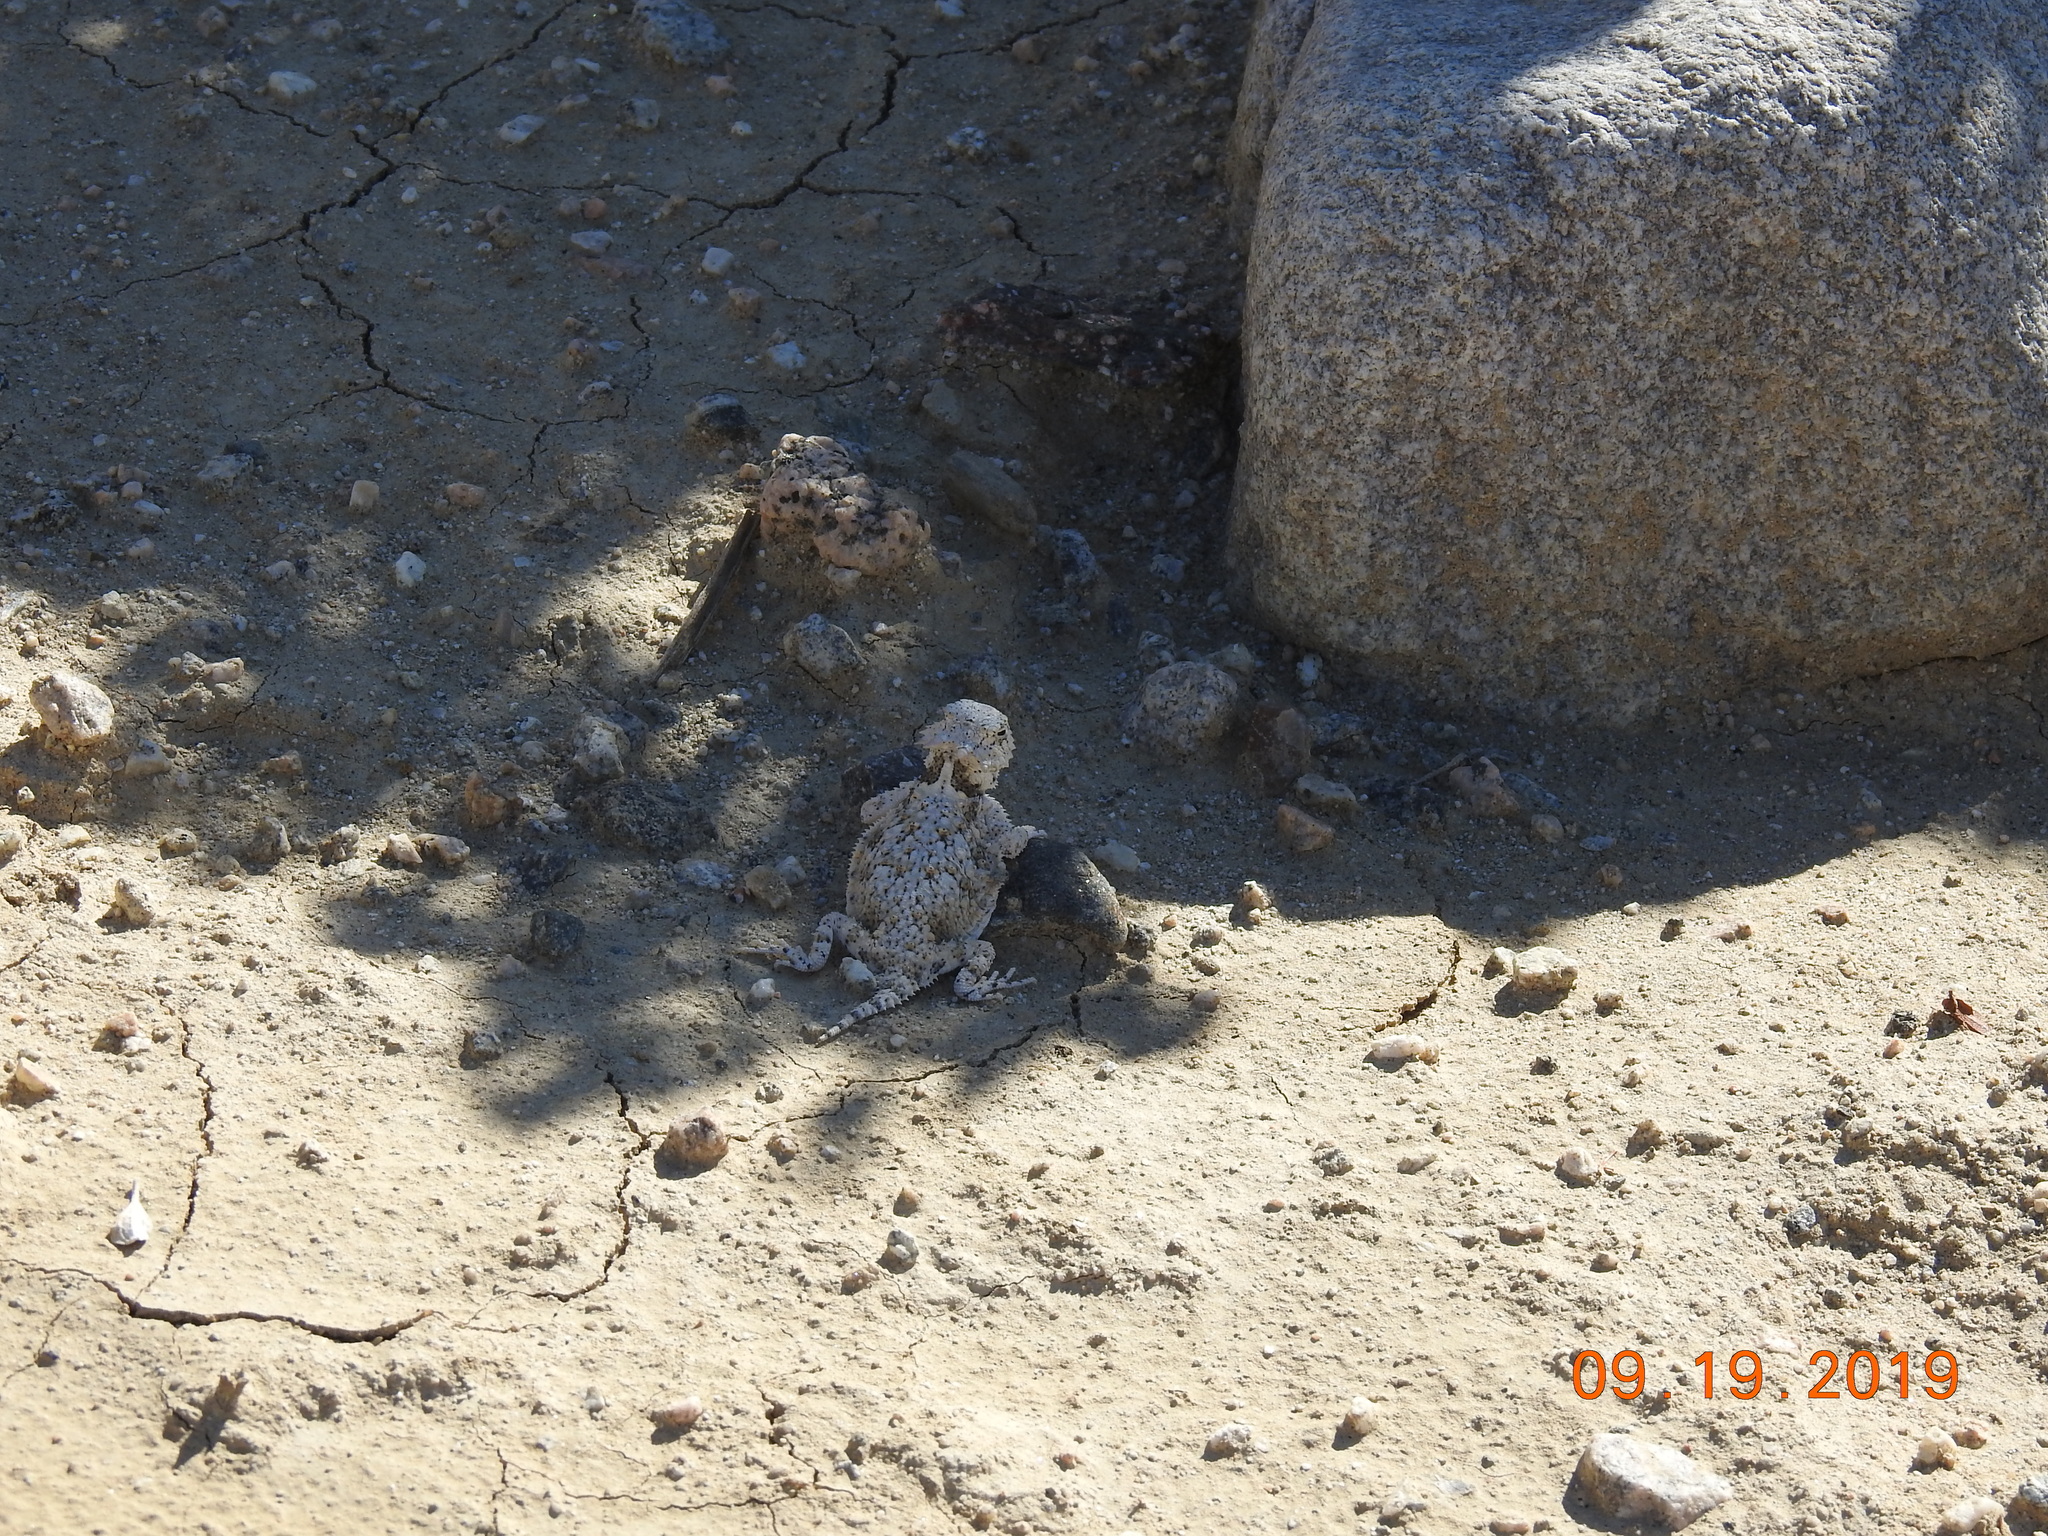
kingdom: Animalia
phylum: Chordata
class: Squamata
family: Phrynosomatidae
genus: Phrynosoma
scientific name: Phrynosoma platyrhinos
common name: Desert horned lizard
